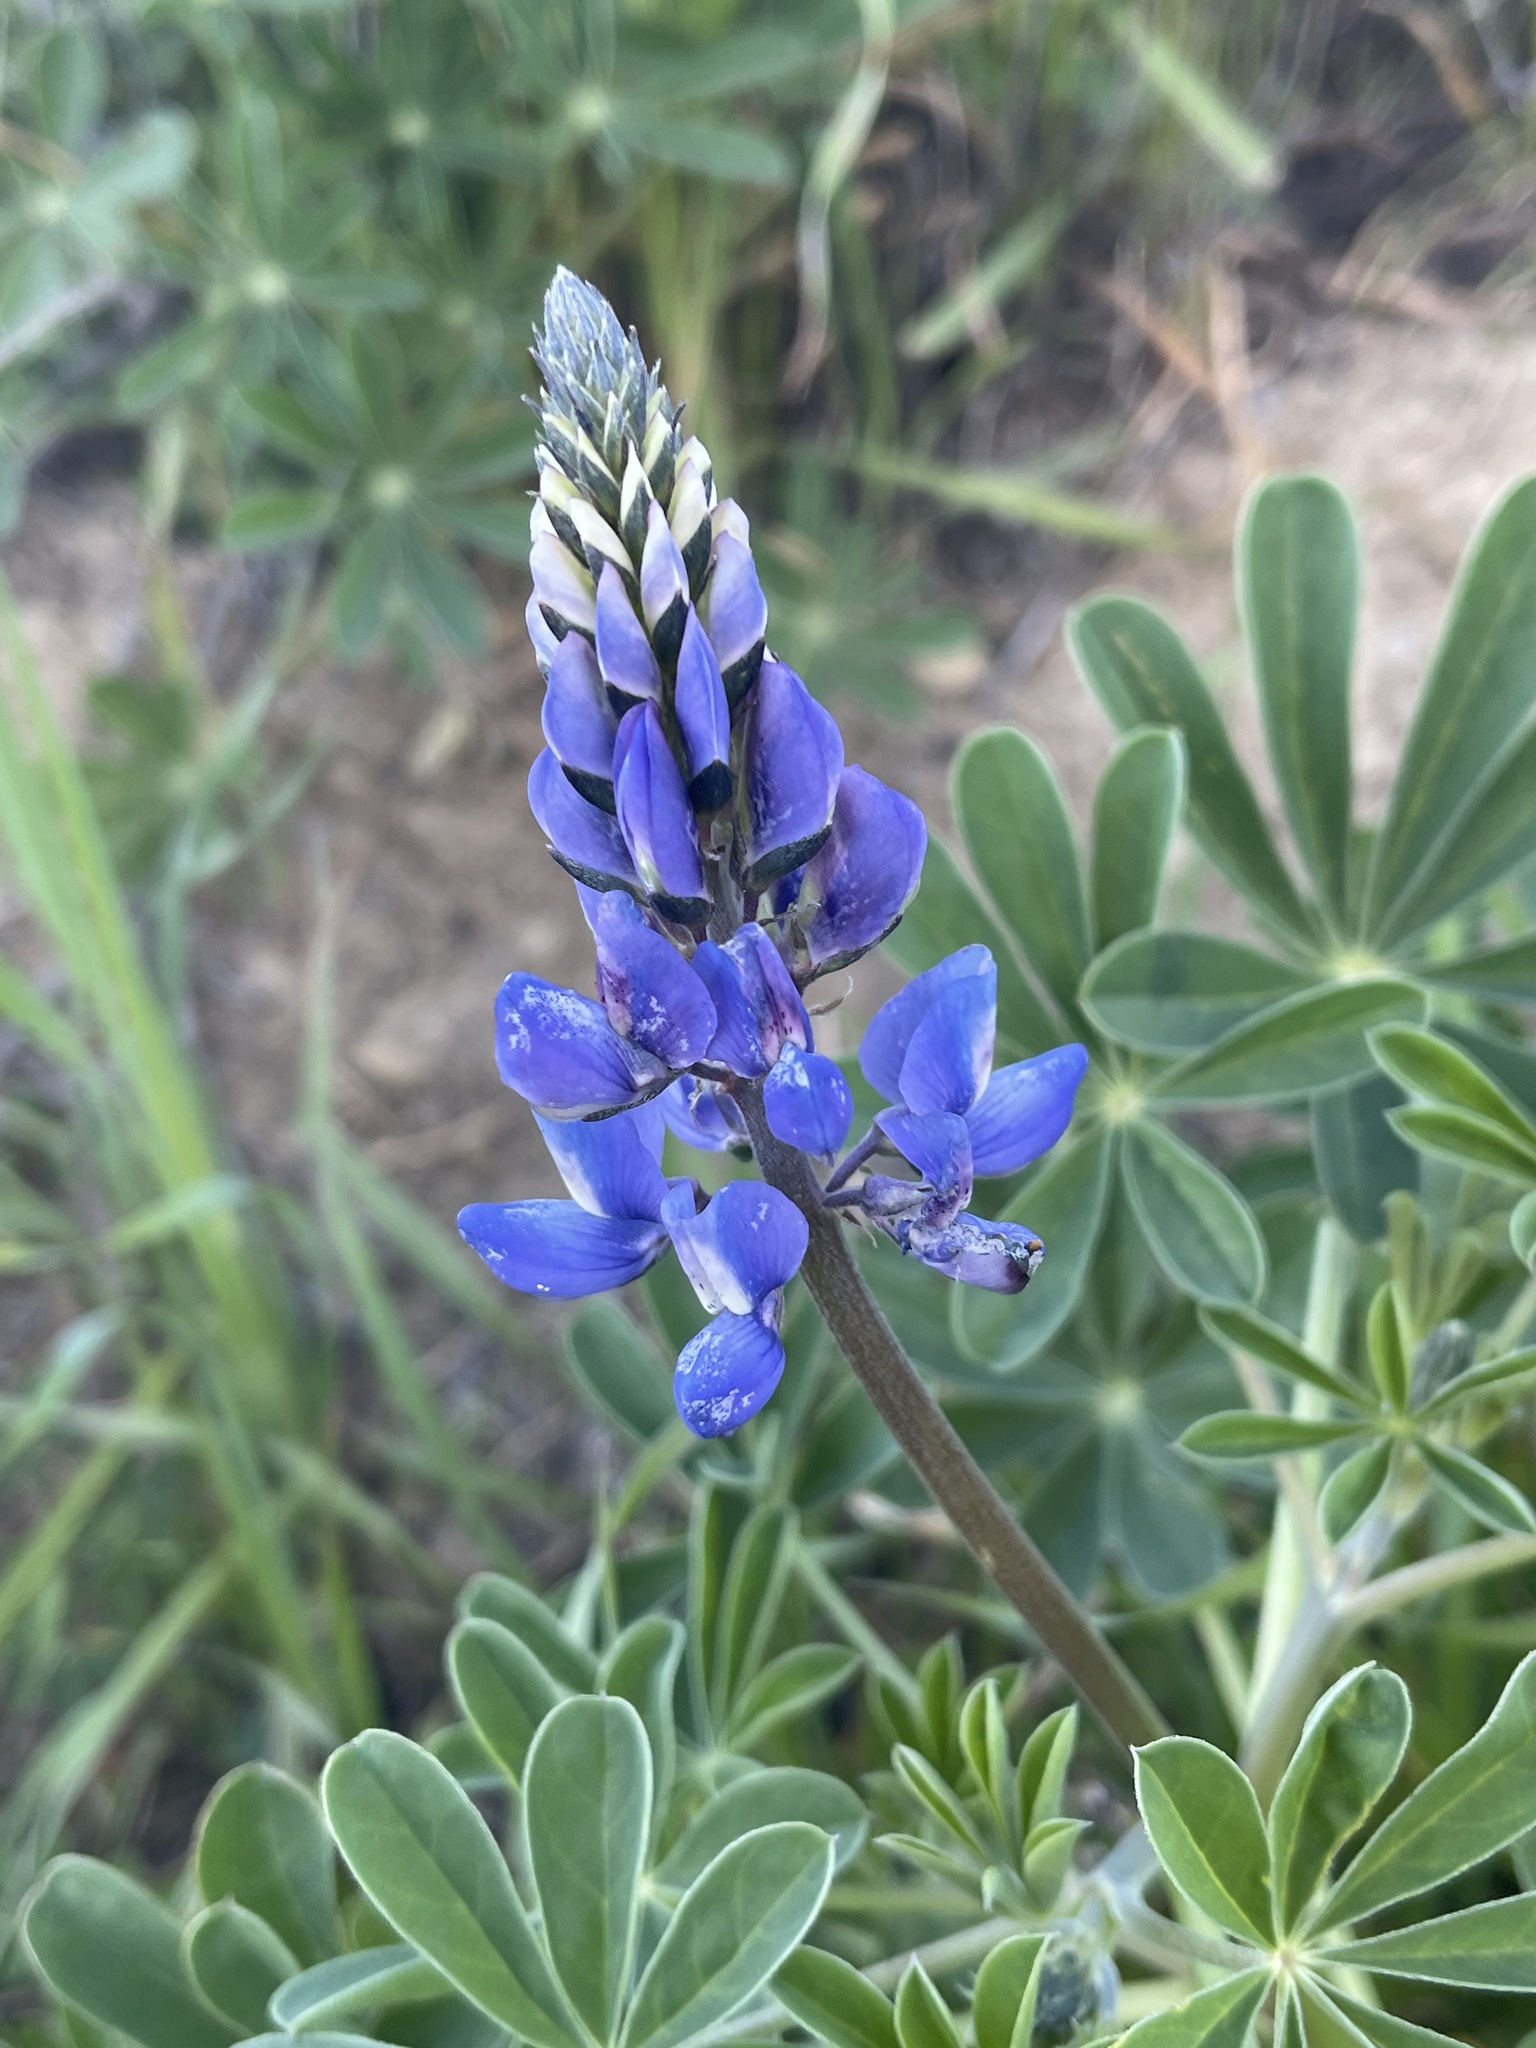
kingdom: Plantae
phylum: Tracheophyta
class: Magnoliopsida
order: Fabales
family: Fabaceae
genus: Lupinus
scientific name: Lupinus succulentus
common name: Arroyo lupine
